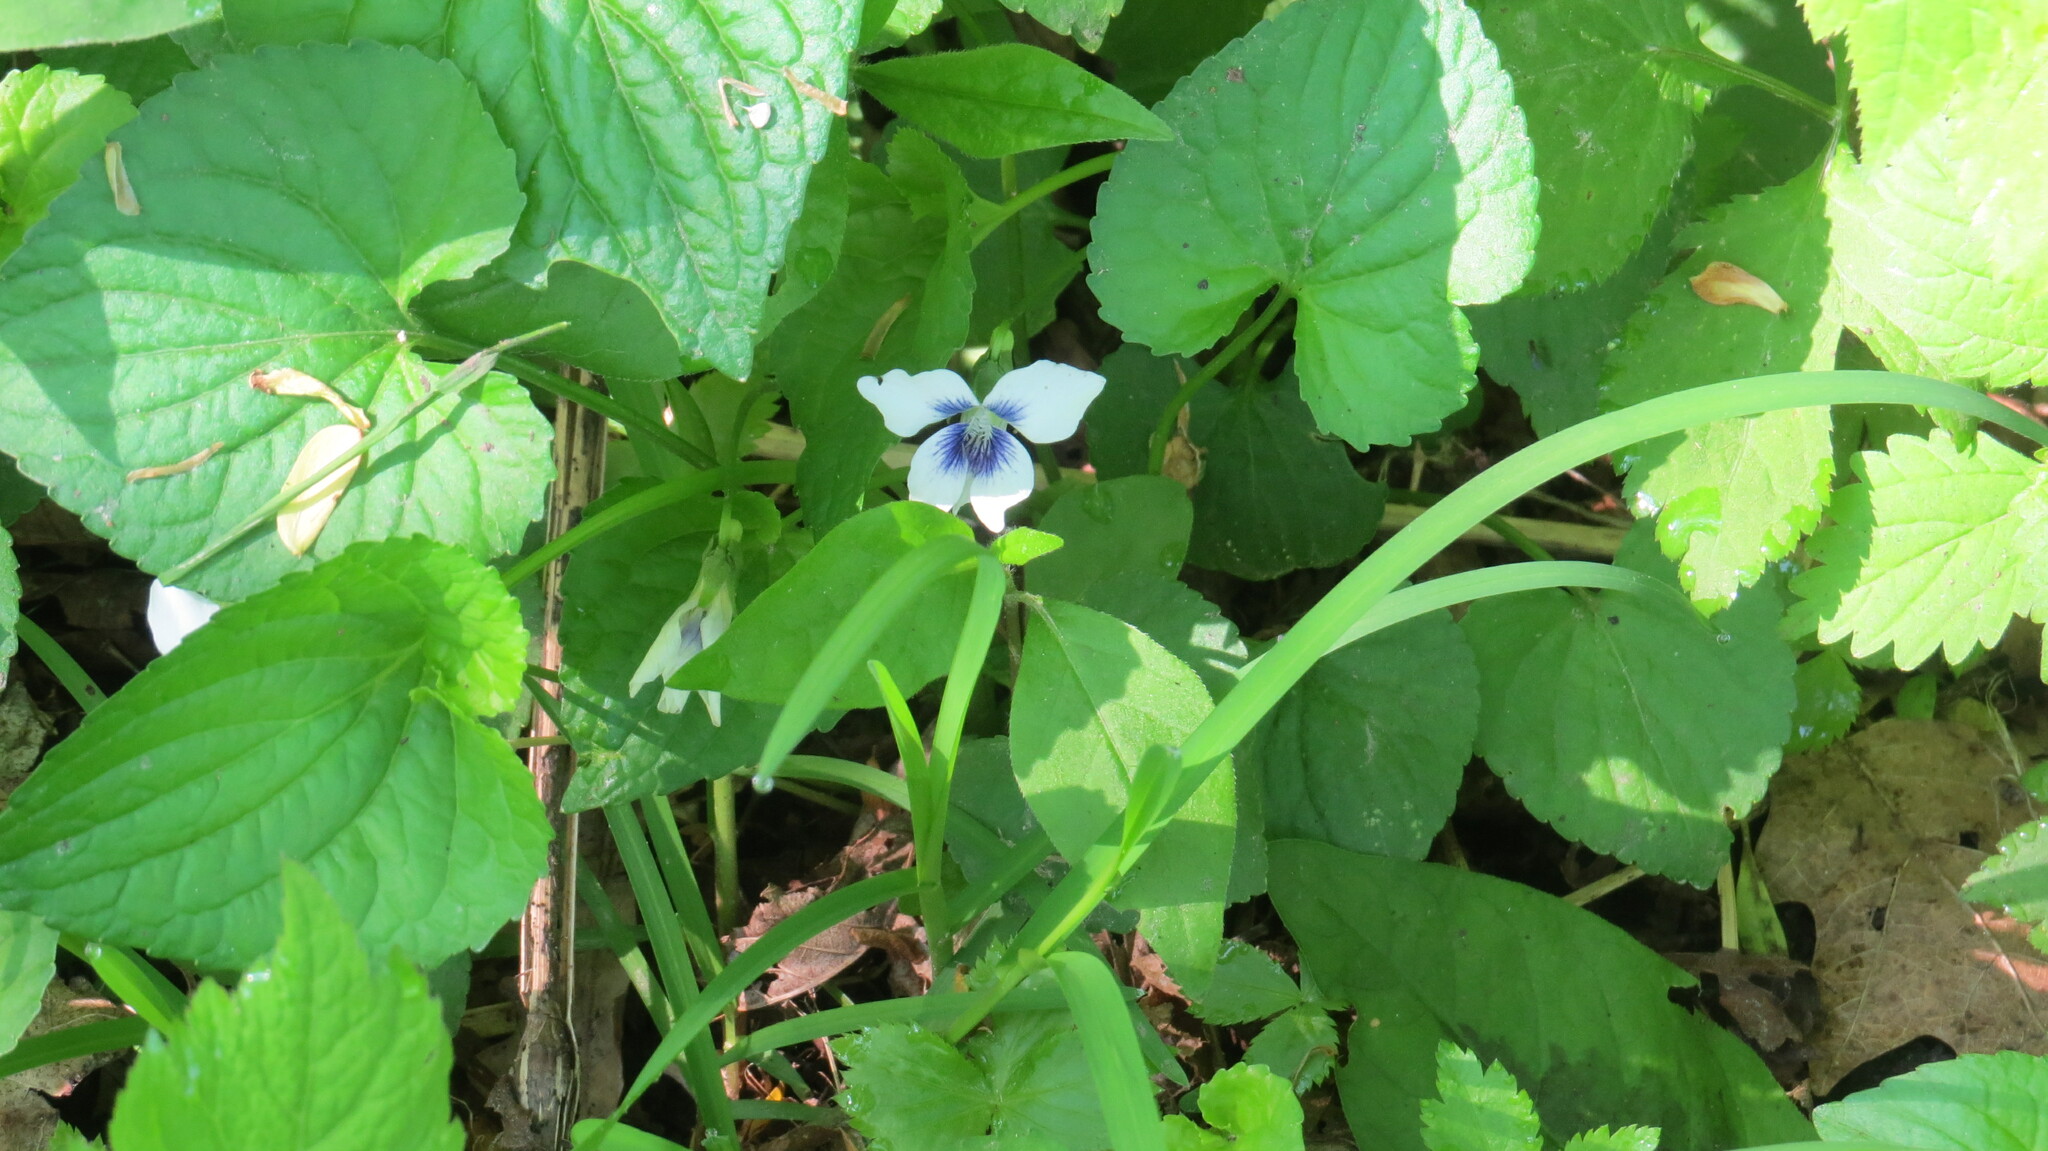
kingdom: Plantae
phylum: Tracheophyta
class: Magnoliopsida
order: Malpighiales
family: Violaceae
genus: Viola
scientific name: Viola sororia
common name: Dooryard violet
